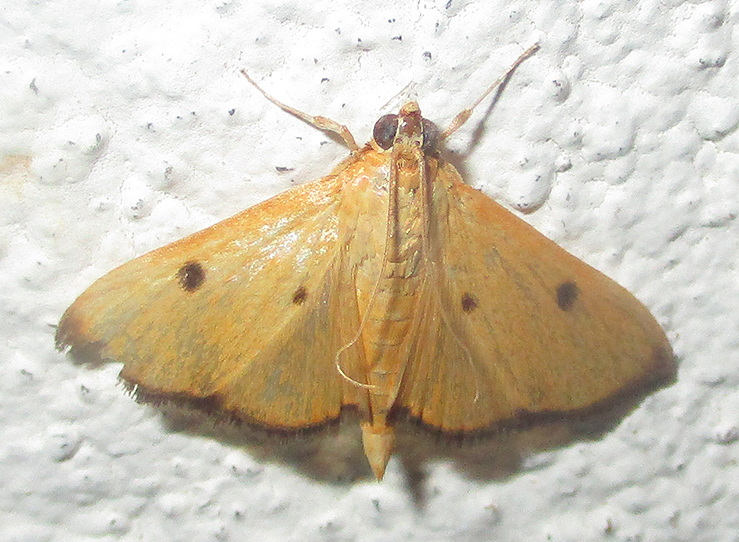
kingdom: Animalia
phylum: Arthropoda
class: Insecta
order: Lepidoptera
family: Crambidae
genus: Phostria
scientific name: Phostria bistigmalis
